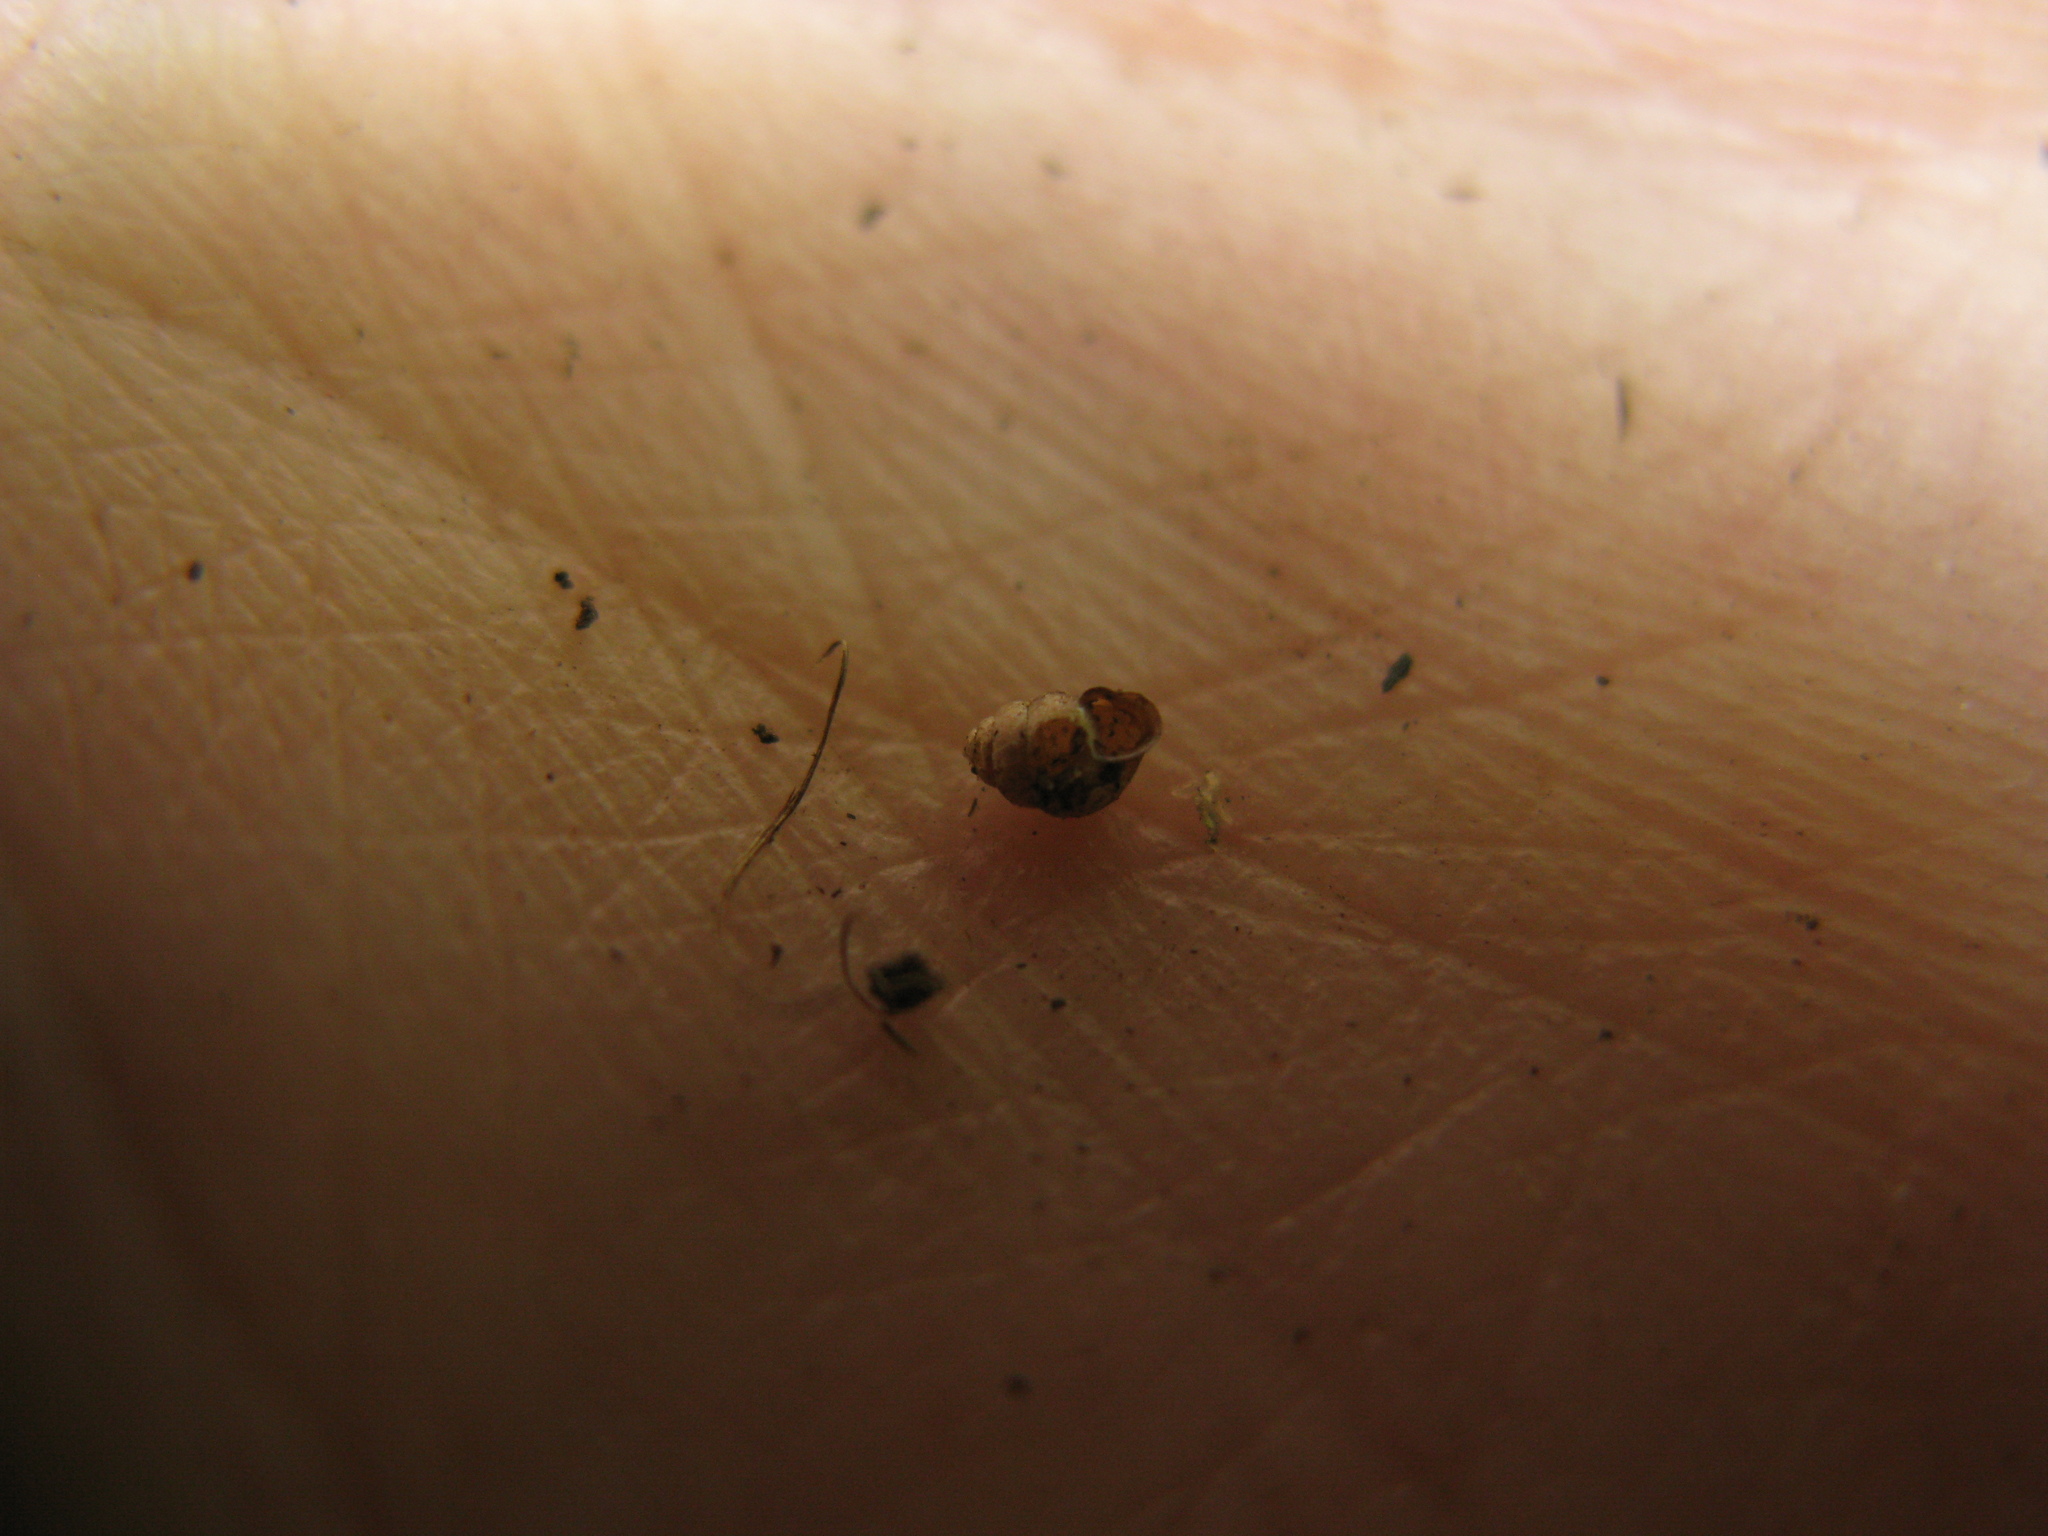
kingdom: Animalia
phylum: Mollusca
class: Gastropoda
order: Stylommatophora
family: Vertiginidae
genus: Vertigo
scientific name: Vertigo moulinsiana
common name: Desmoulin's whorl snail
